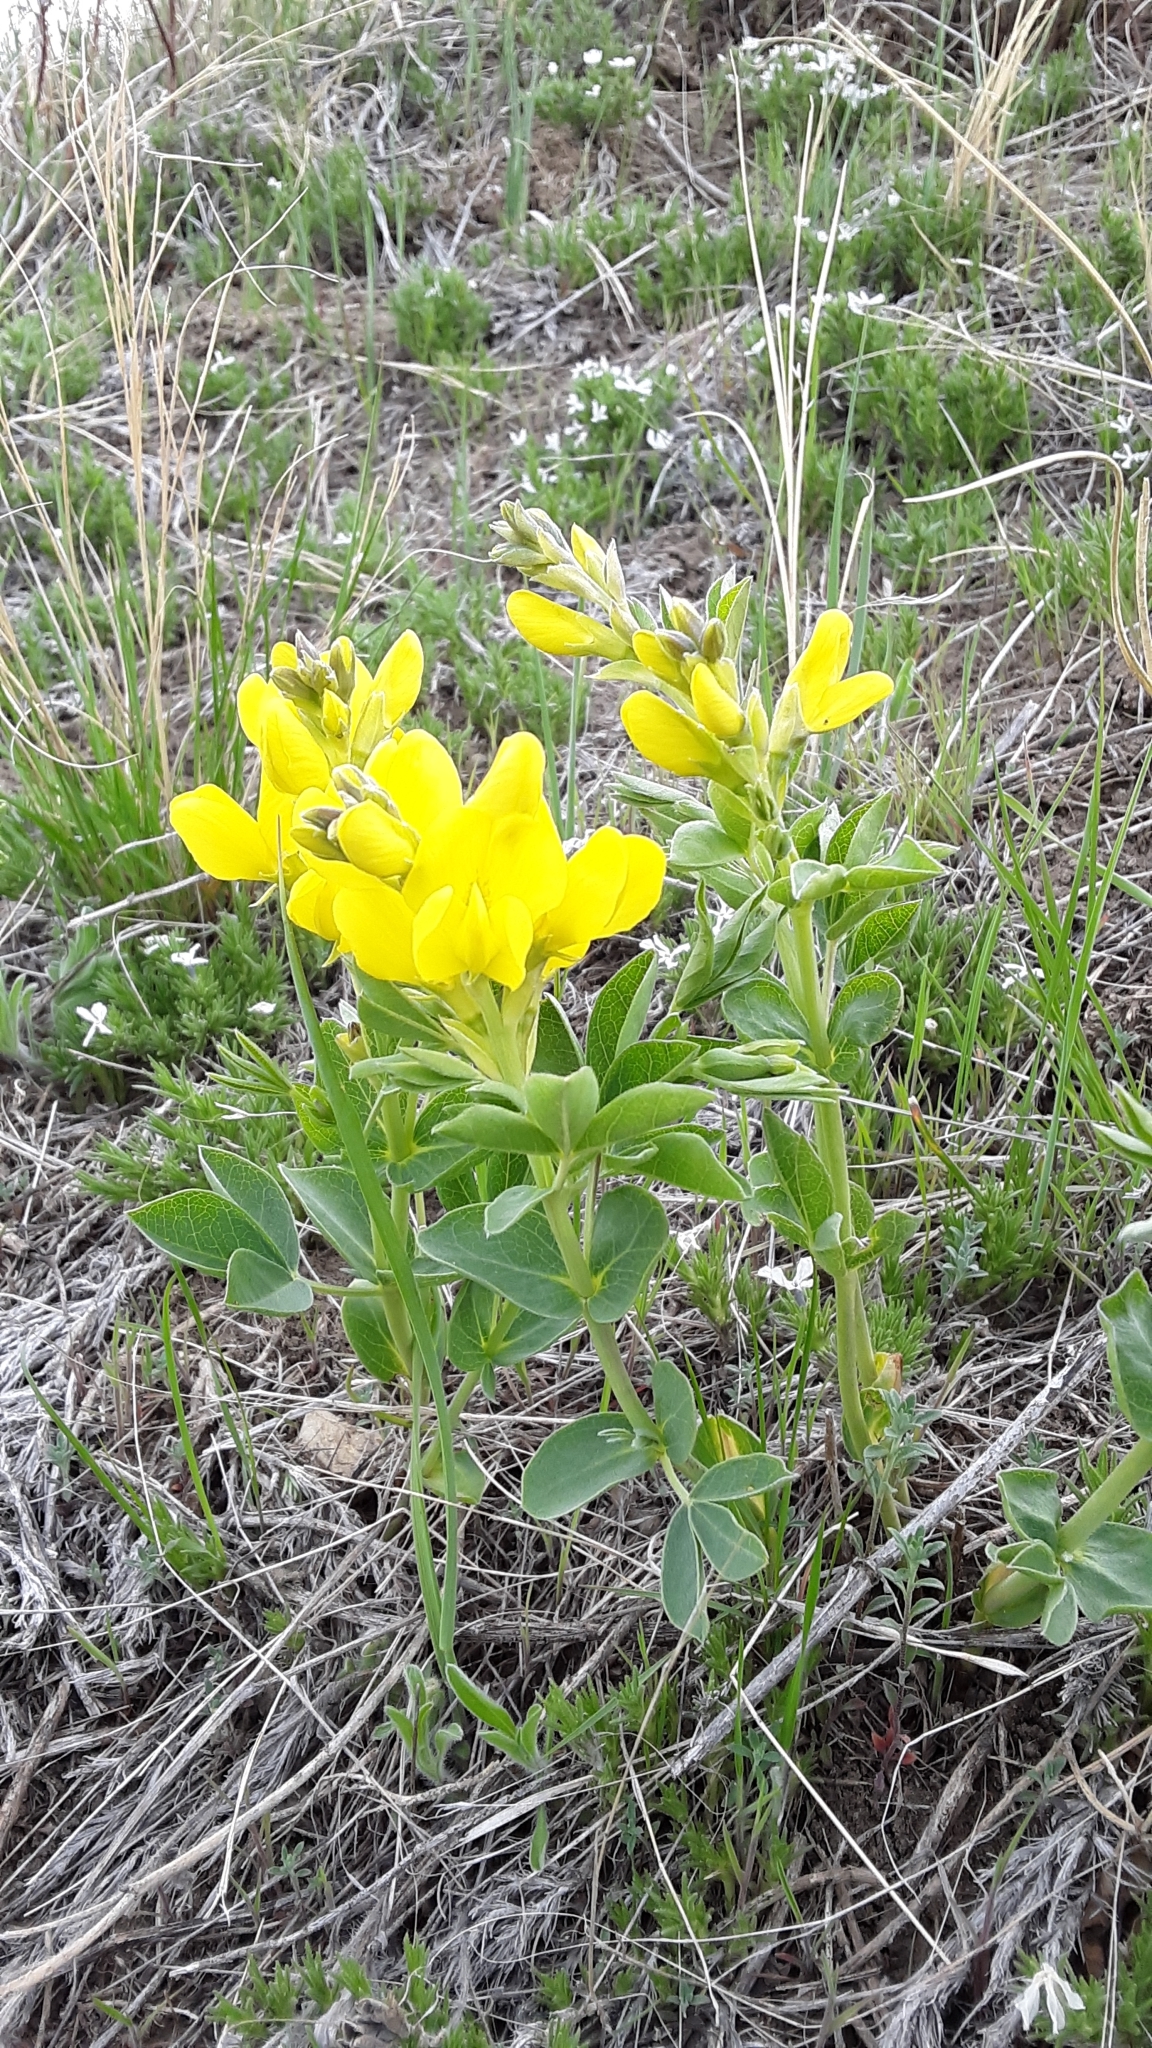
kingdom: Plantae
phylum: Tracheophyta
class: Magnoliopsida
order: Fabales
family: Fabaceae
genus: Thermopsis
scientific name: Thermopsis rhombifolia
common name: Circle-pod-pea
